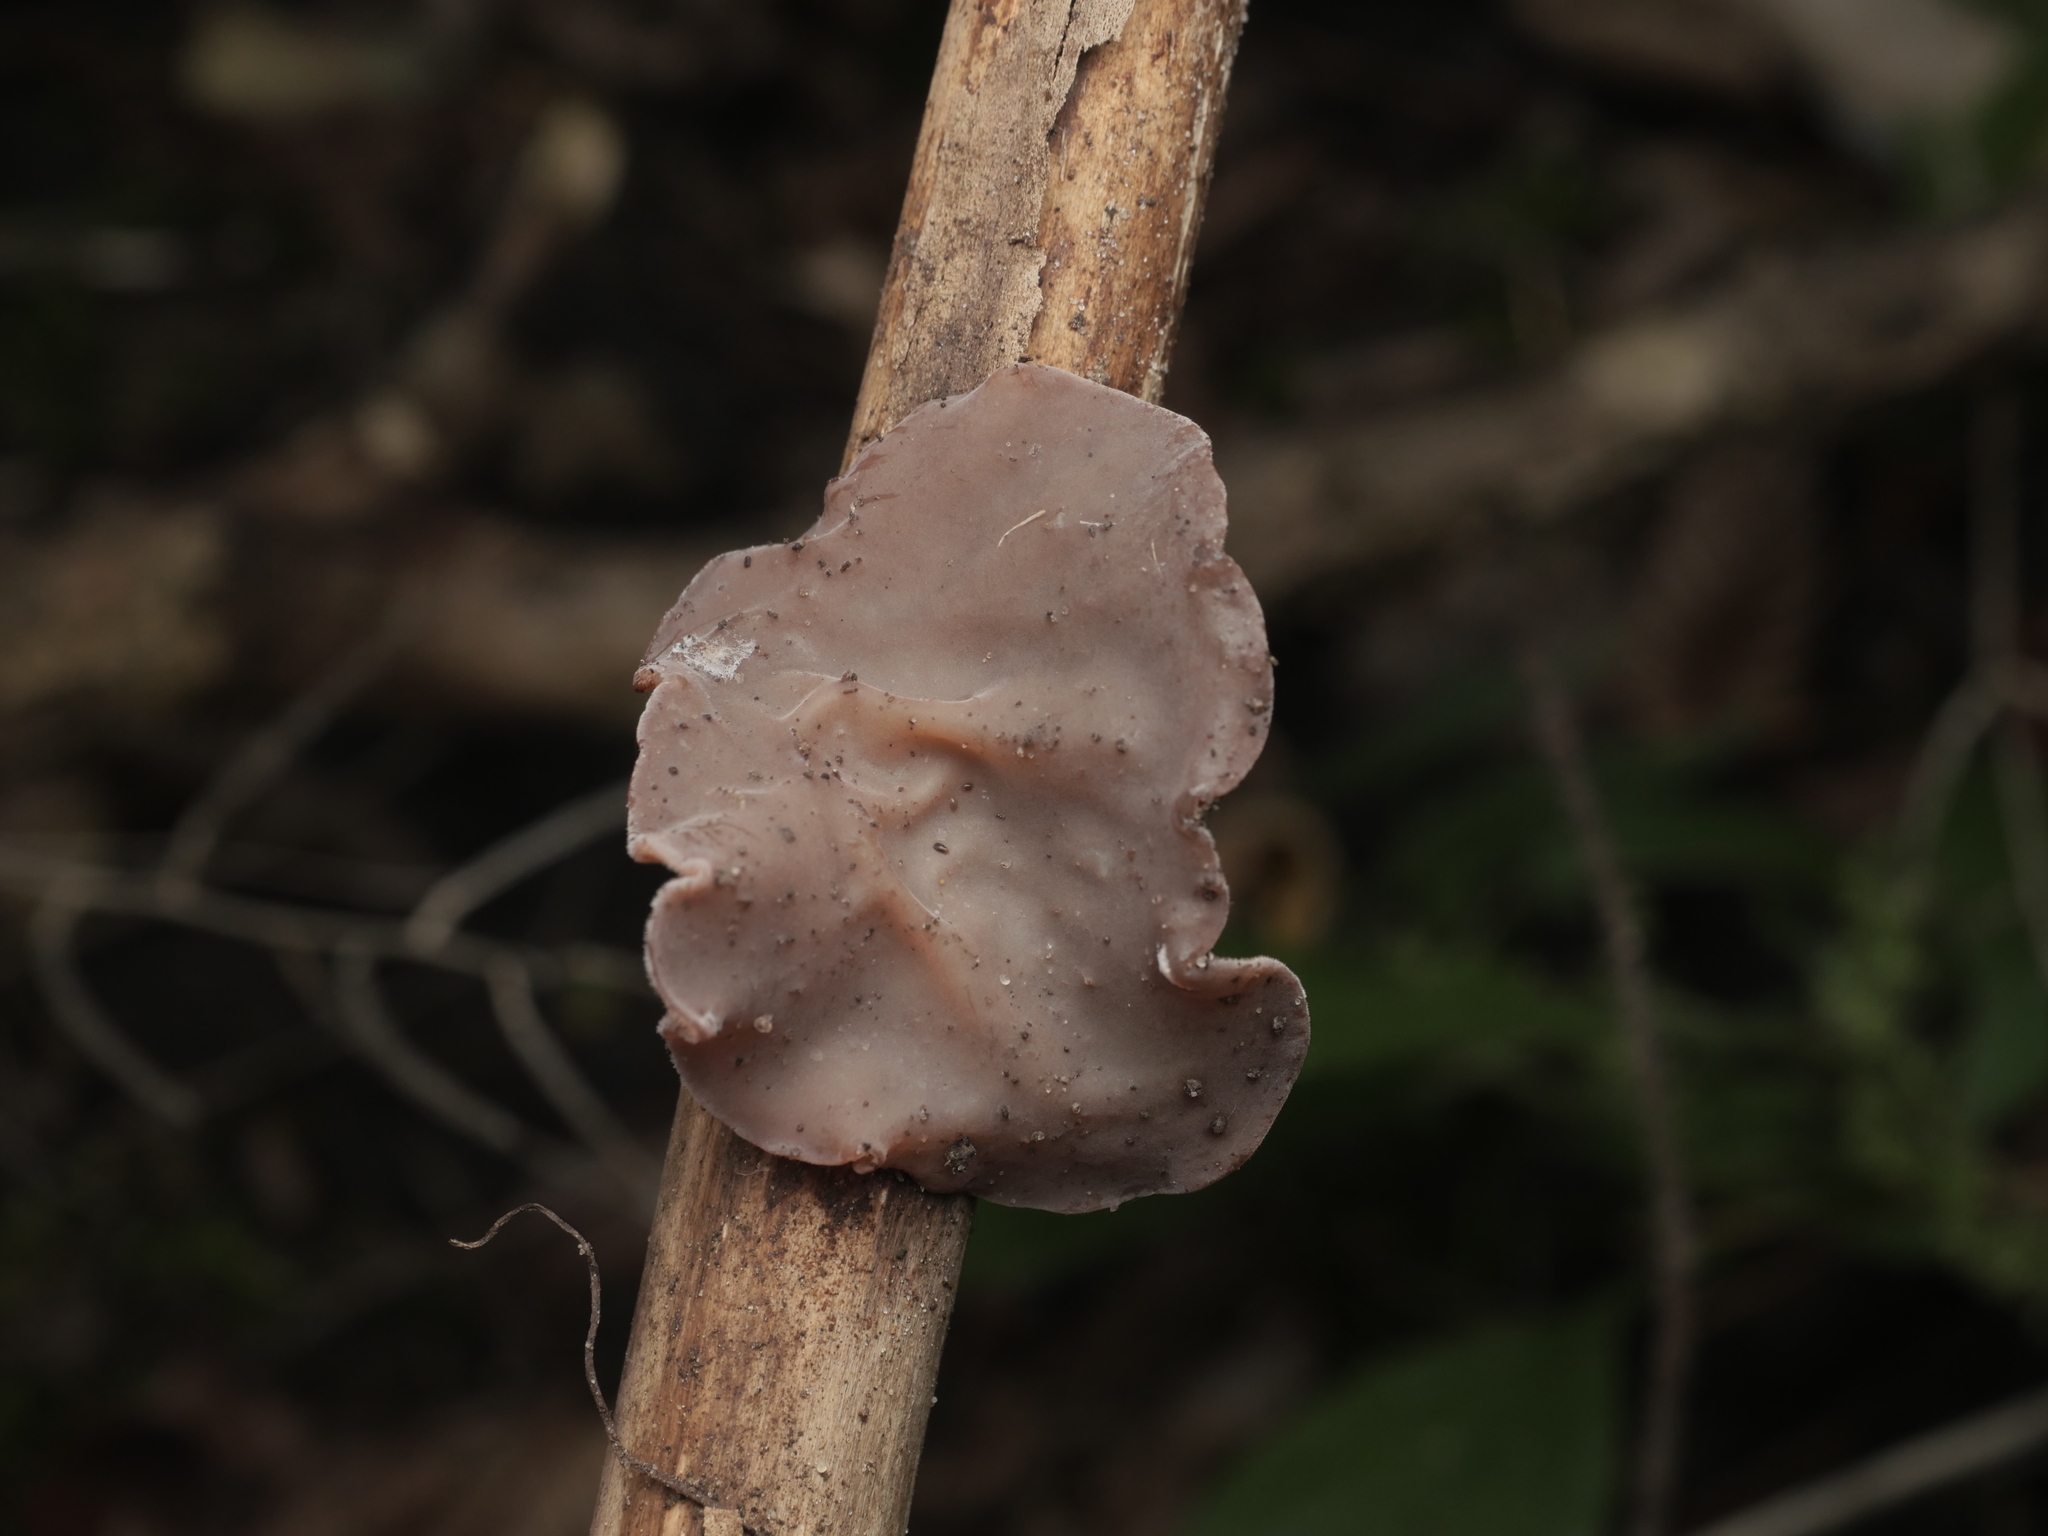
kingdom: Fungi
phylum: Basidiomycota
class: Agaricomycetes
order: Auriculariales
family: Auriculariaceae
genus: Auricularia
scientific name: Auricularia auricula-judae
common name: Jelly ear
